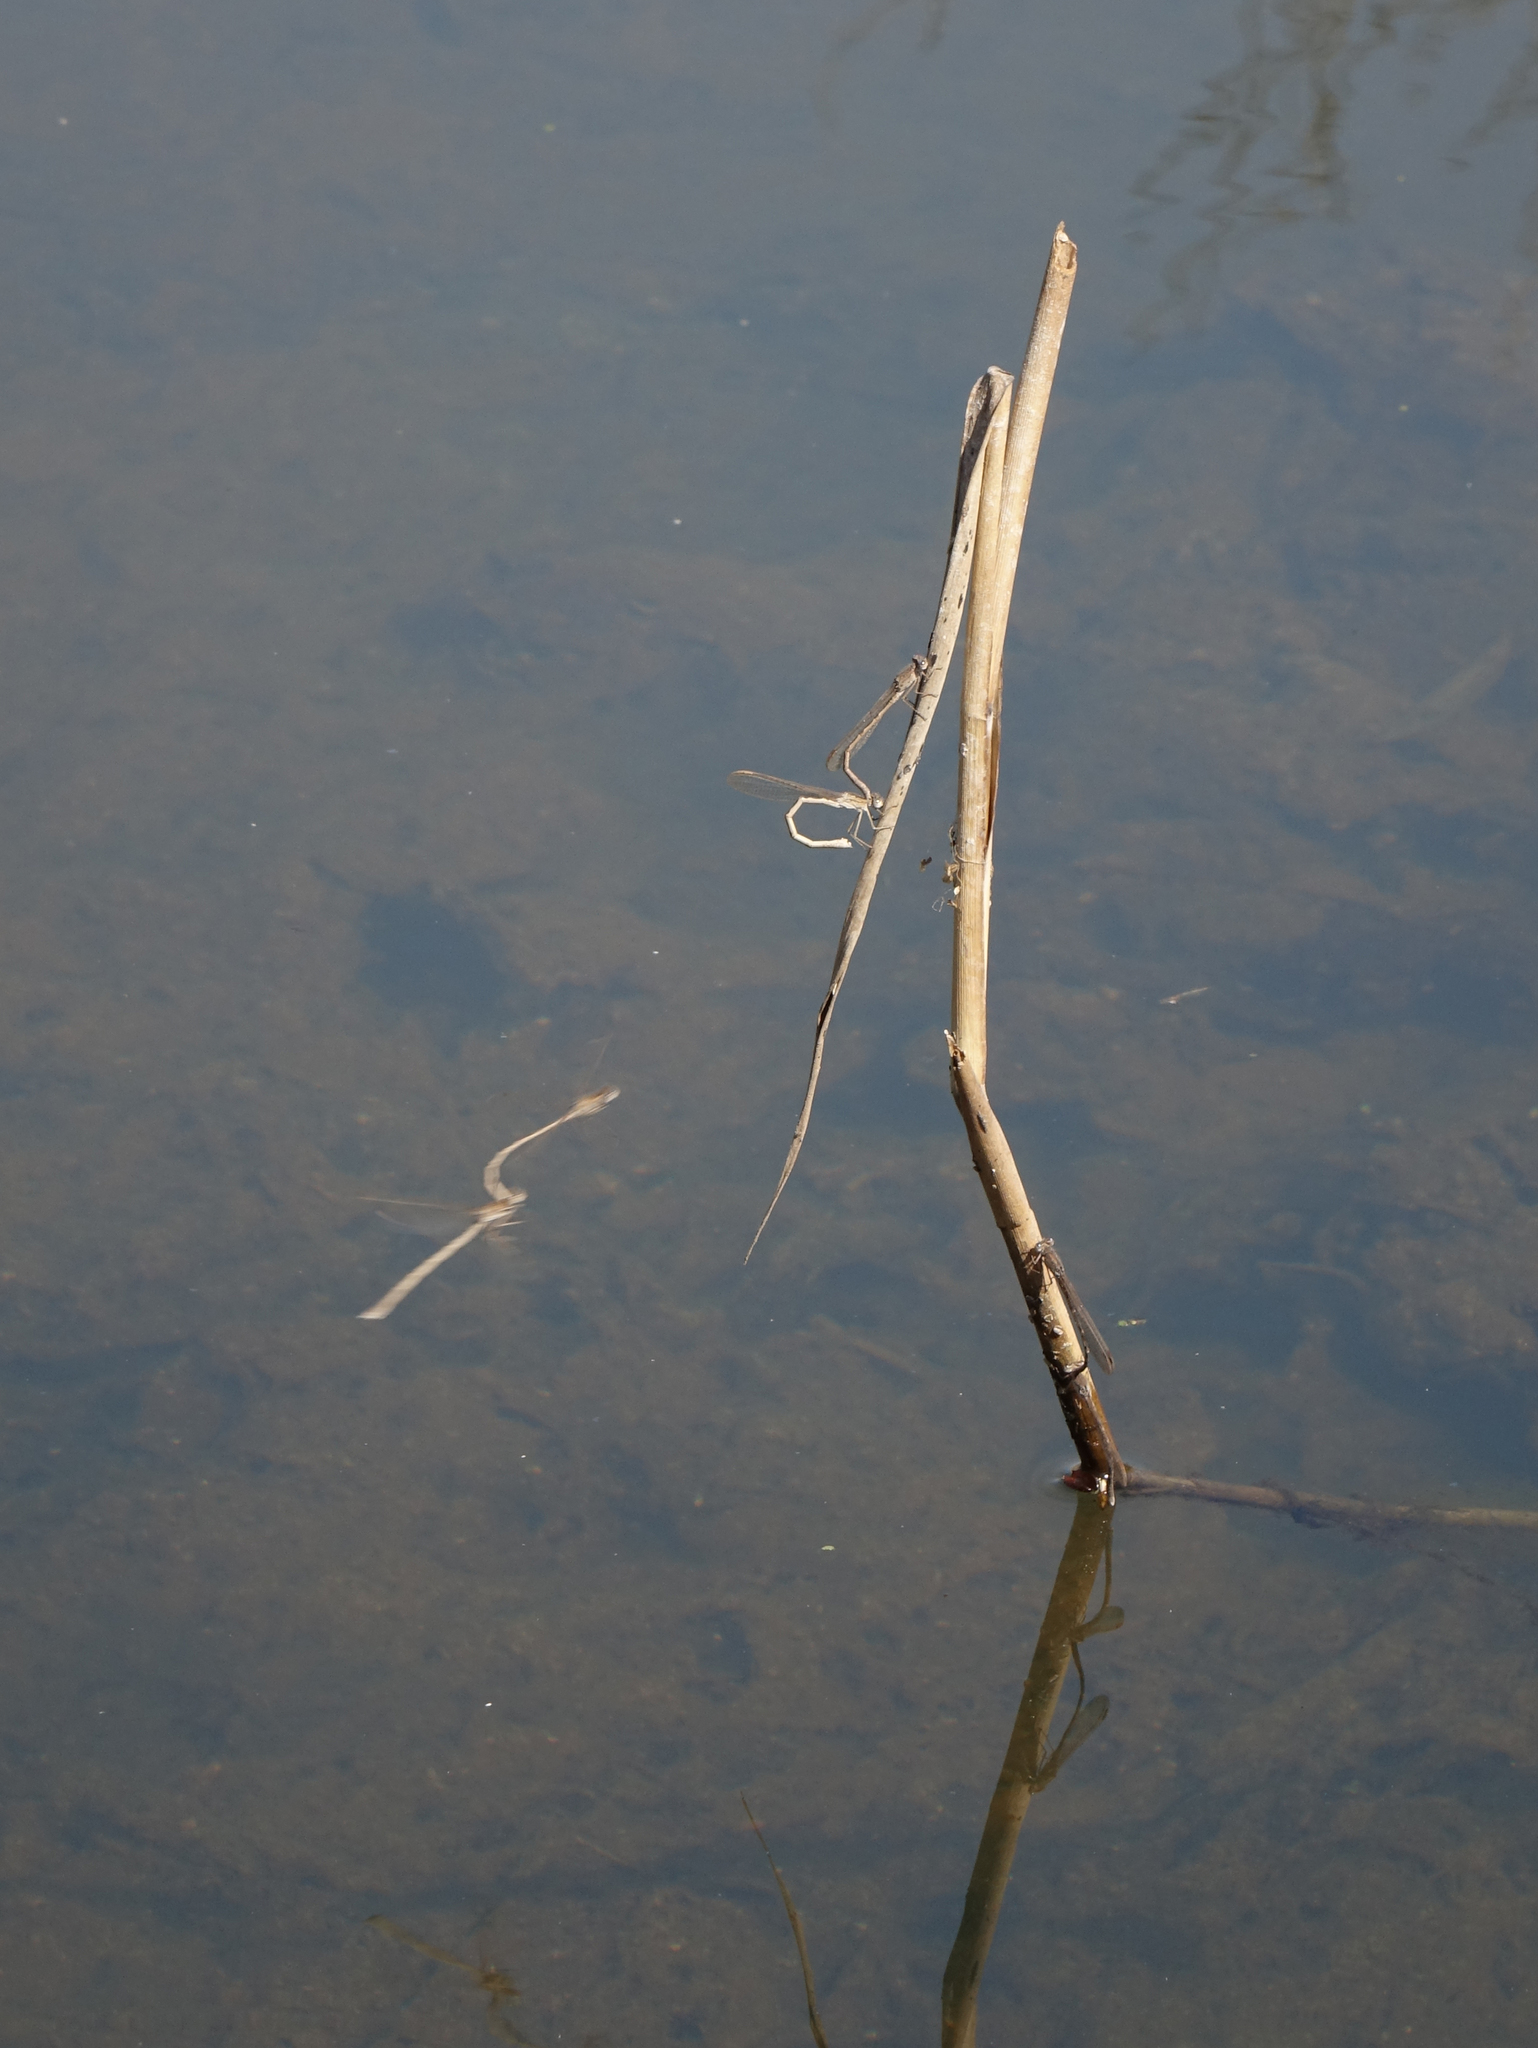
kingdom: Animalia
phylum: Arthropoda
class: Insecta
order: Odonata
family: Lestidae
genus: Sympecma
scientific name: Sympecma paedisca
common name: Siberian winter damsel
